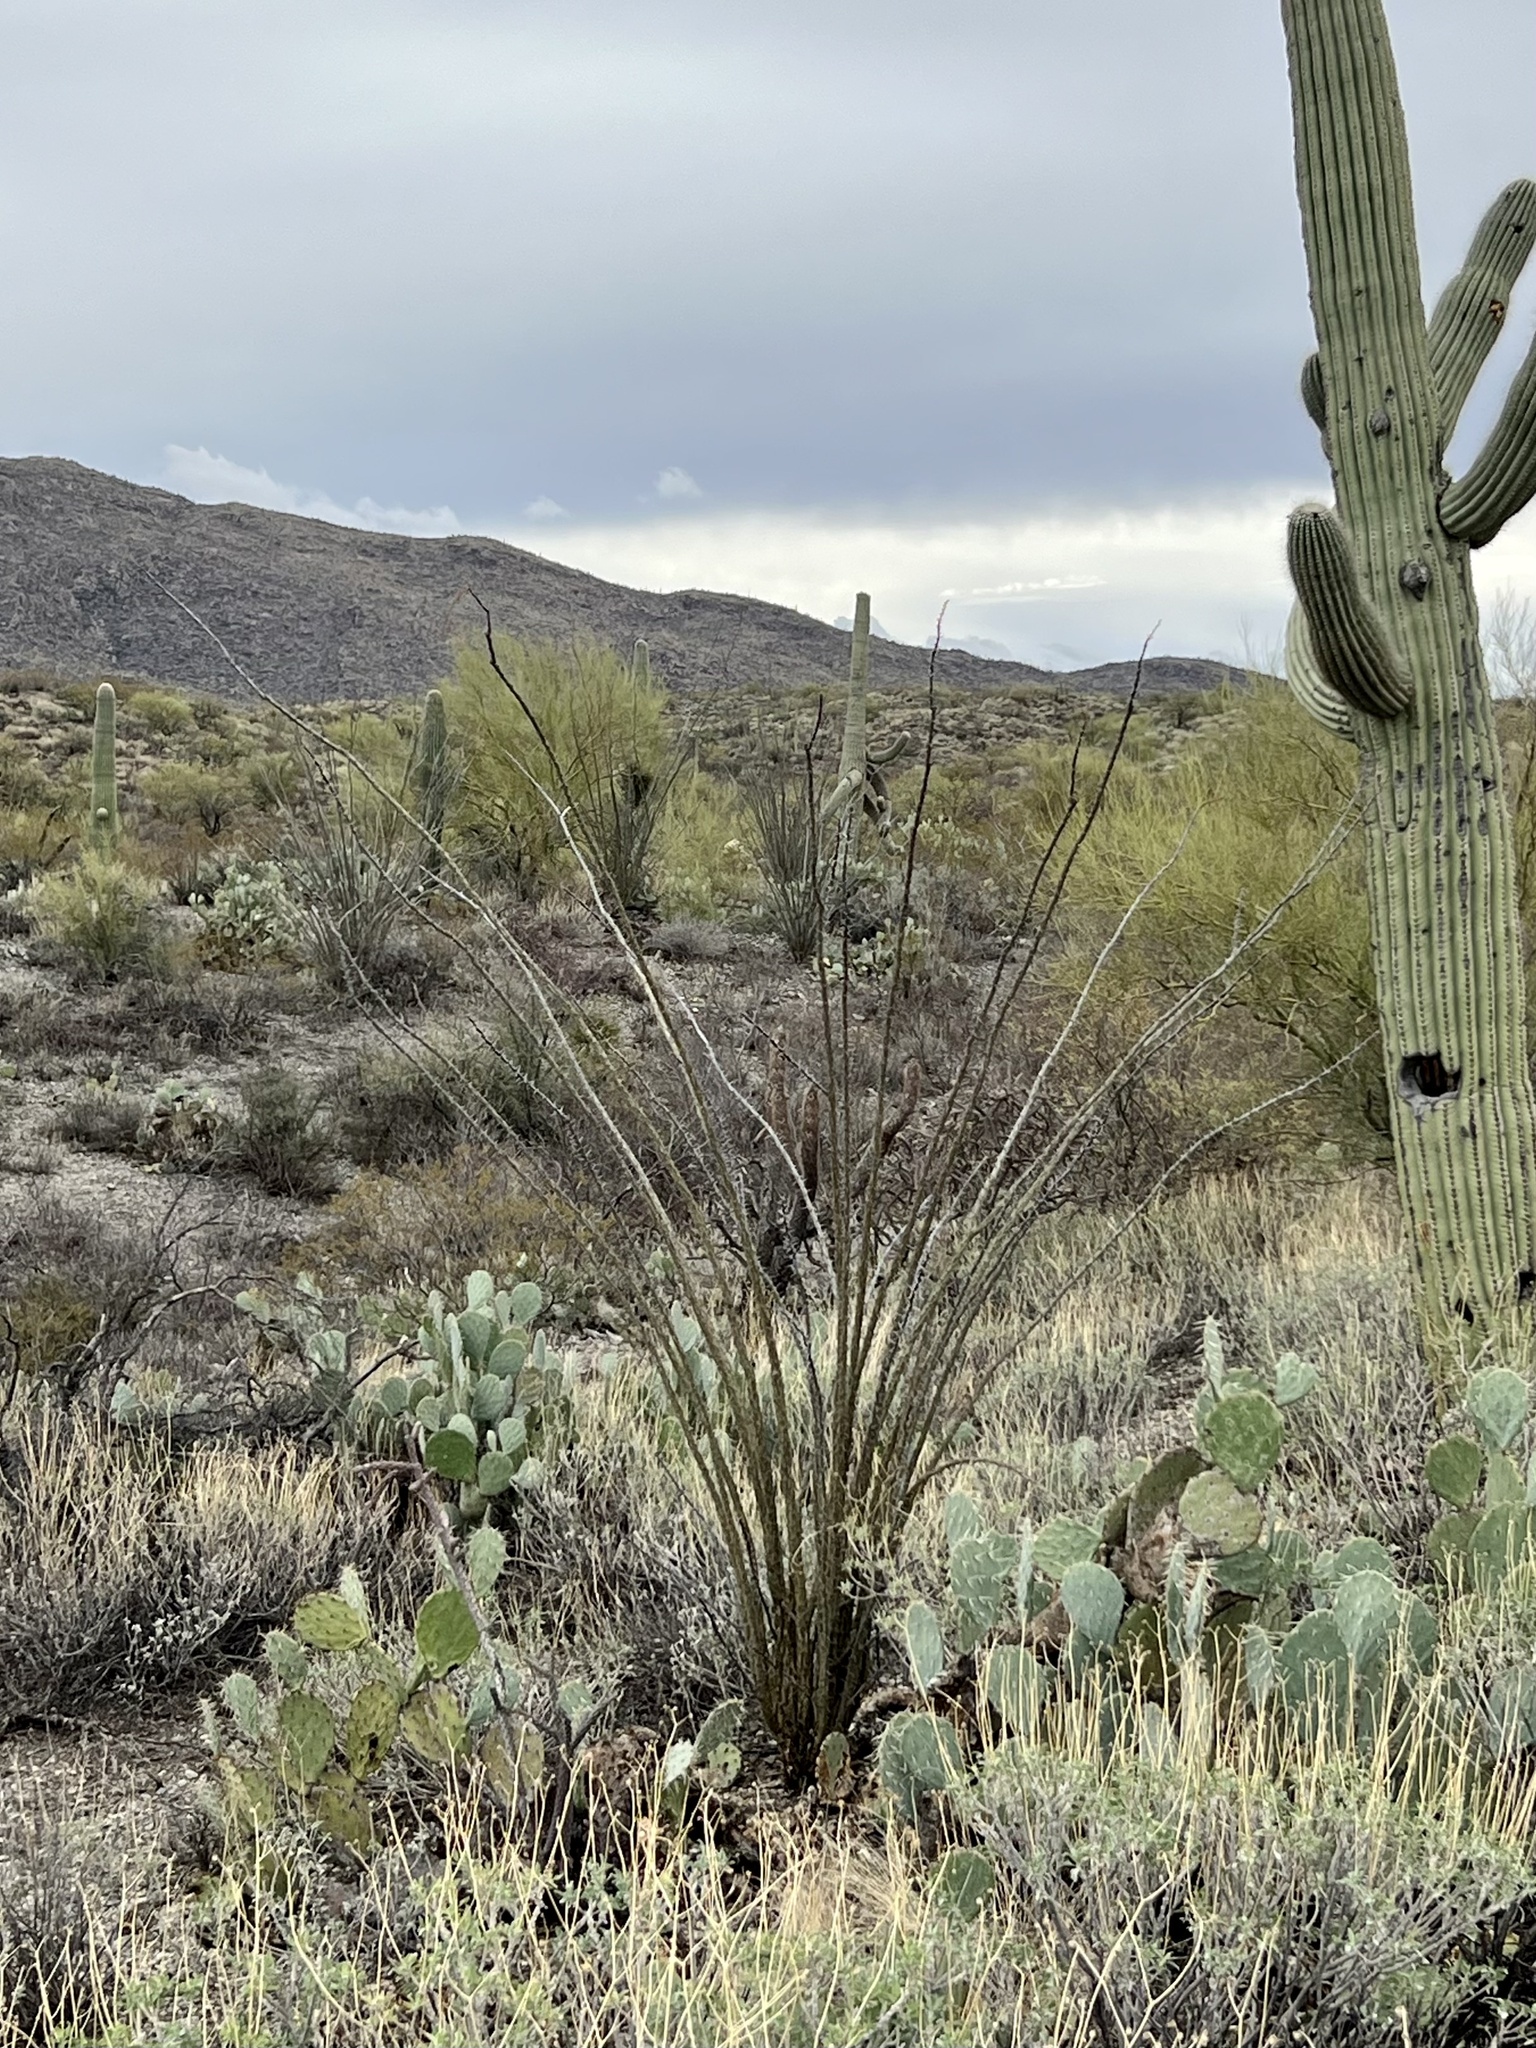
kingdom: Plantae
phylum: Tracheophyta
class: Magnoliopsida
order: Ericales
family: Fouquieriaceae
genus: Fouquieria
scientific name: Fouquieria splendens
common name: Vine-cactus
